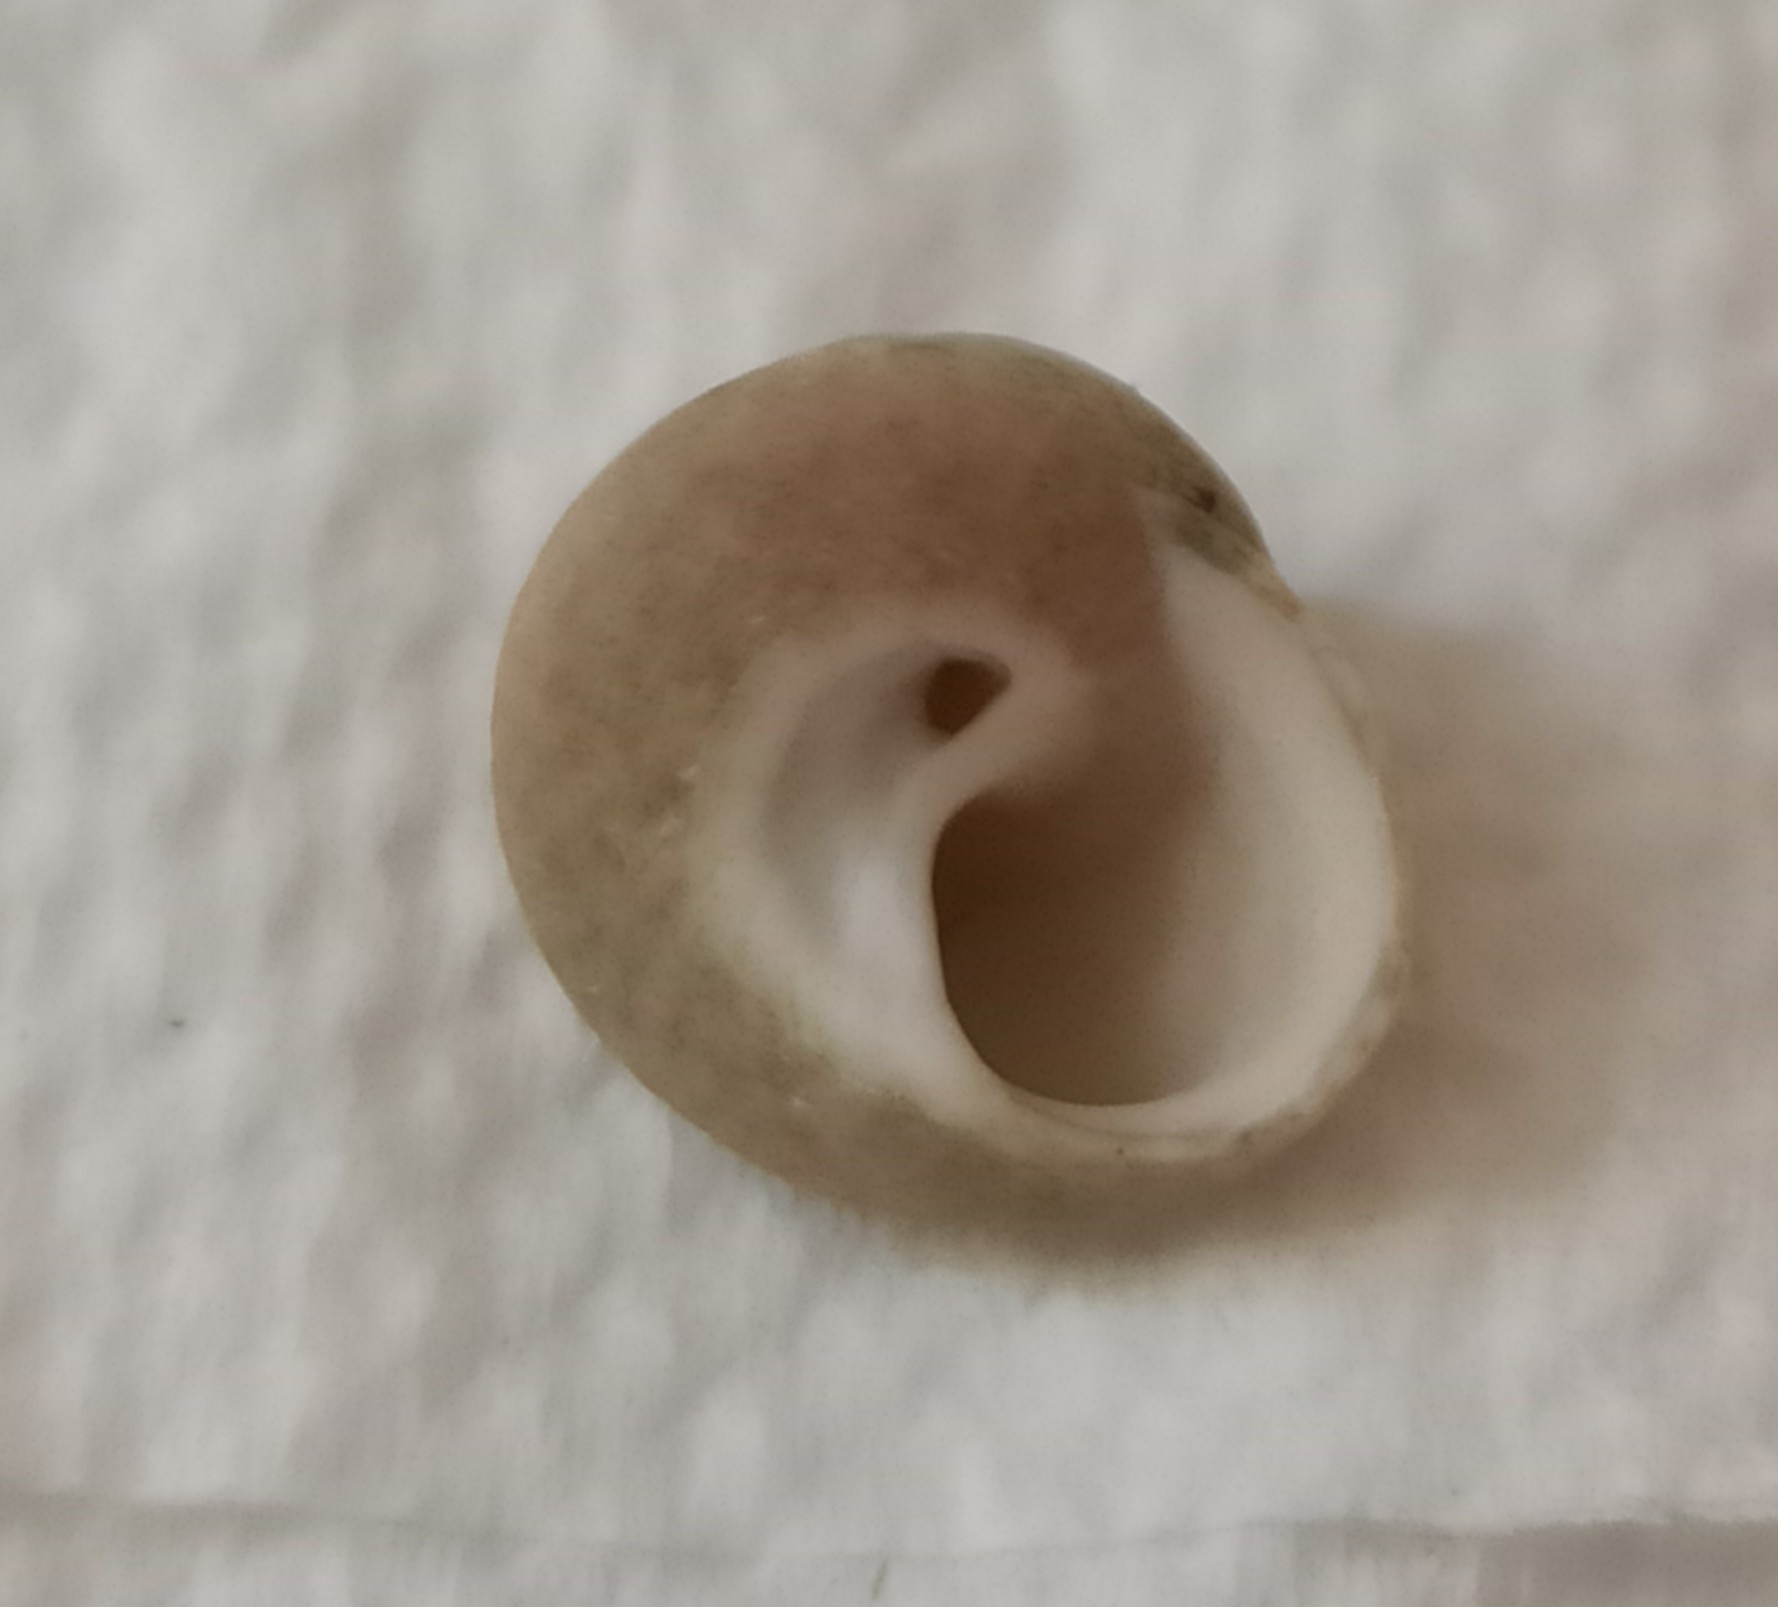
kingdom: Animalia
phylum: Mollusca
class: Gastropoda
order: Trochida
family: Trochidae
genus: Steromphala
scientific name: Steromphala varia
